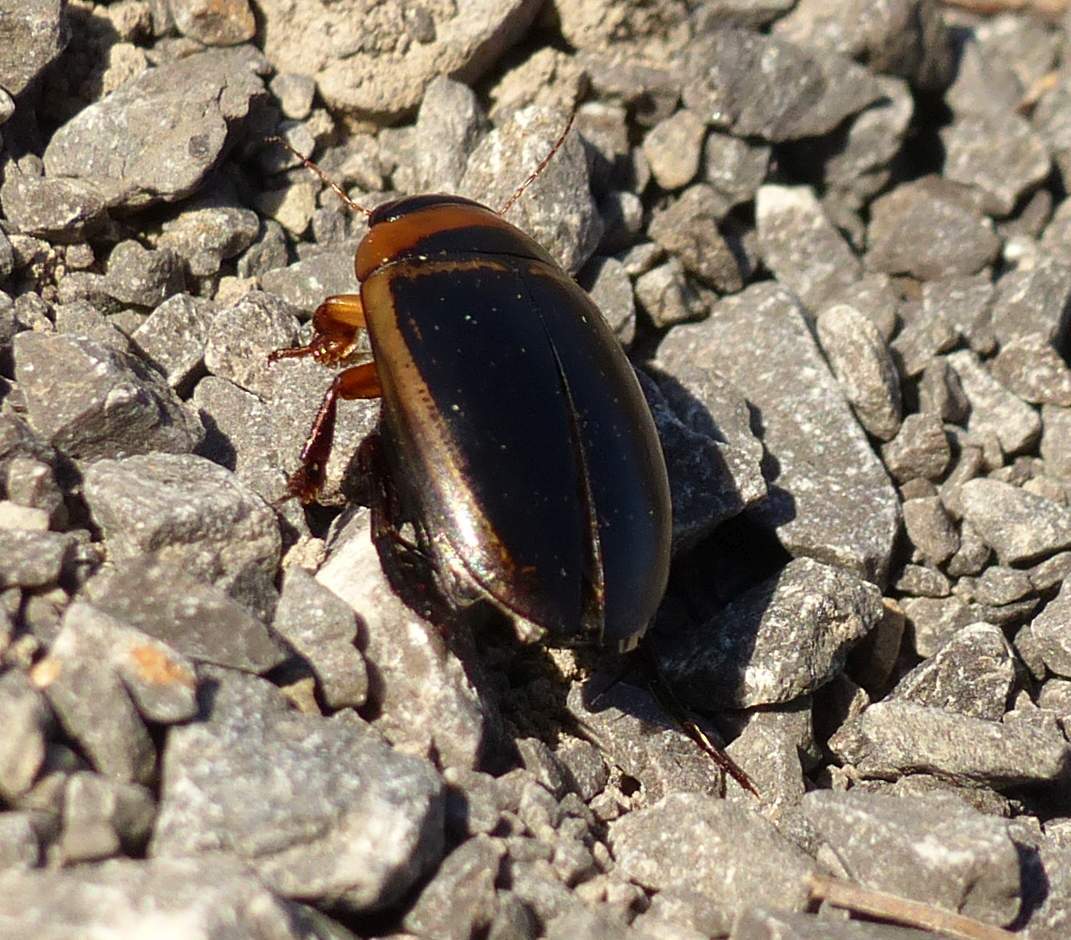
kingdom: Animalia
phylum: Arthropoda
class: Insecta
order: Coleoptera
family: Dytiscidae
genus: Hydaticus
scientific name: Hydaticus aruspex
